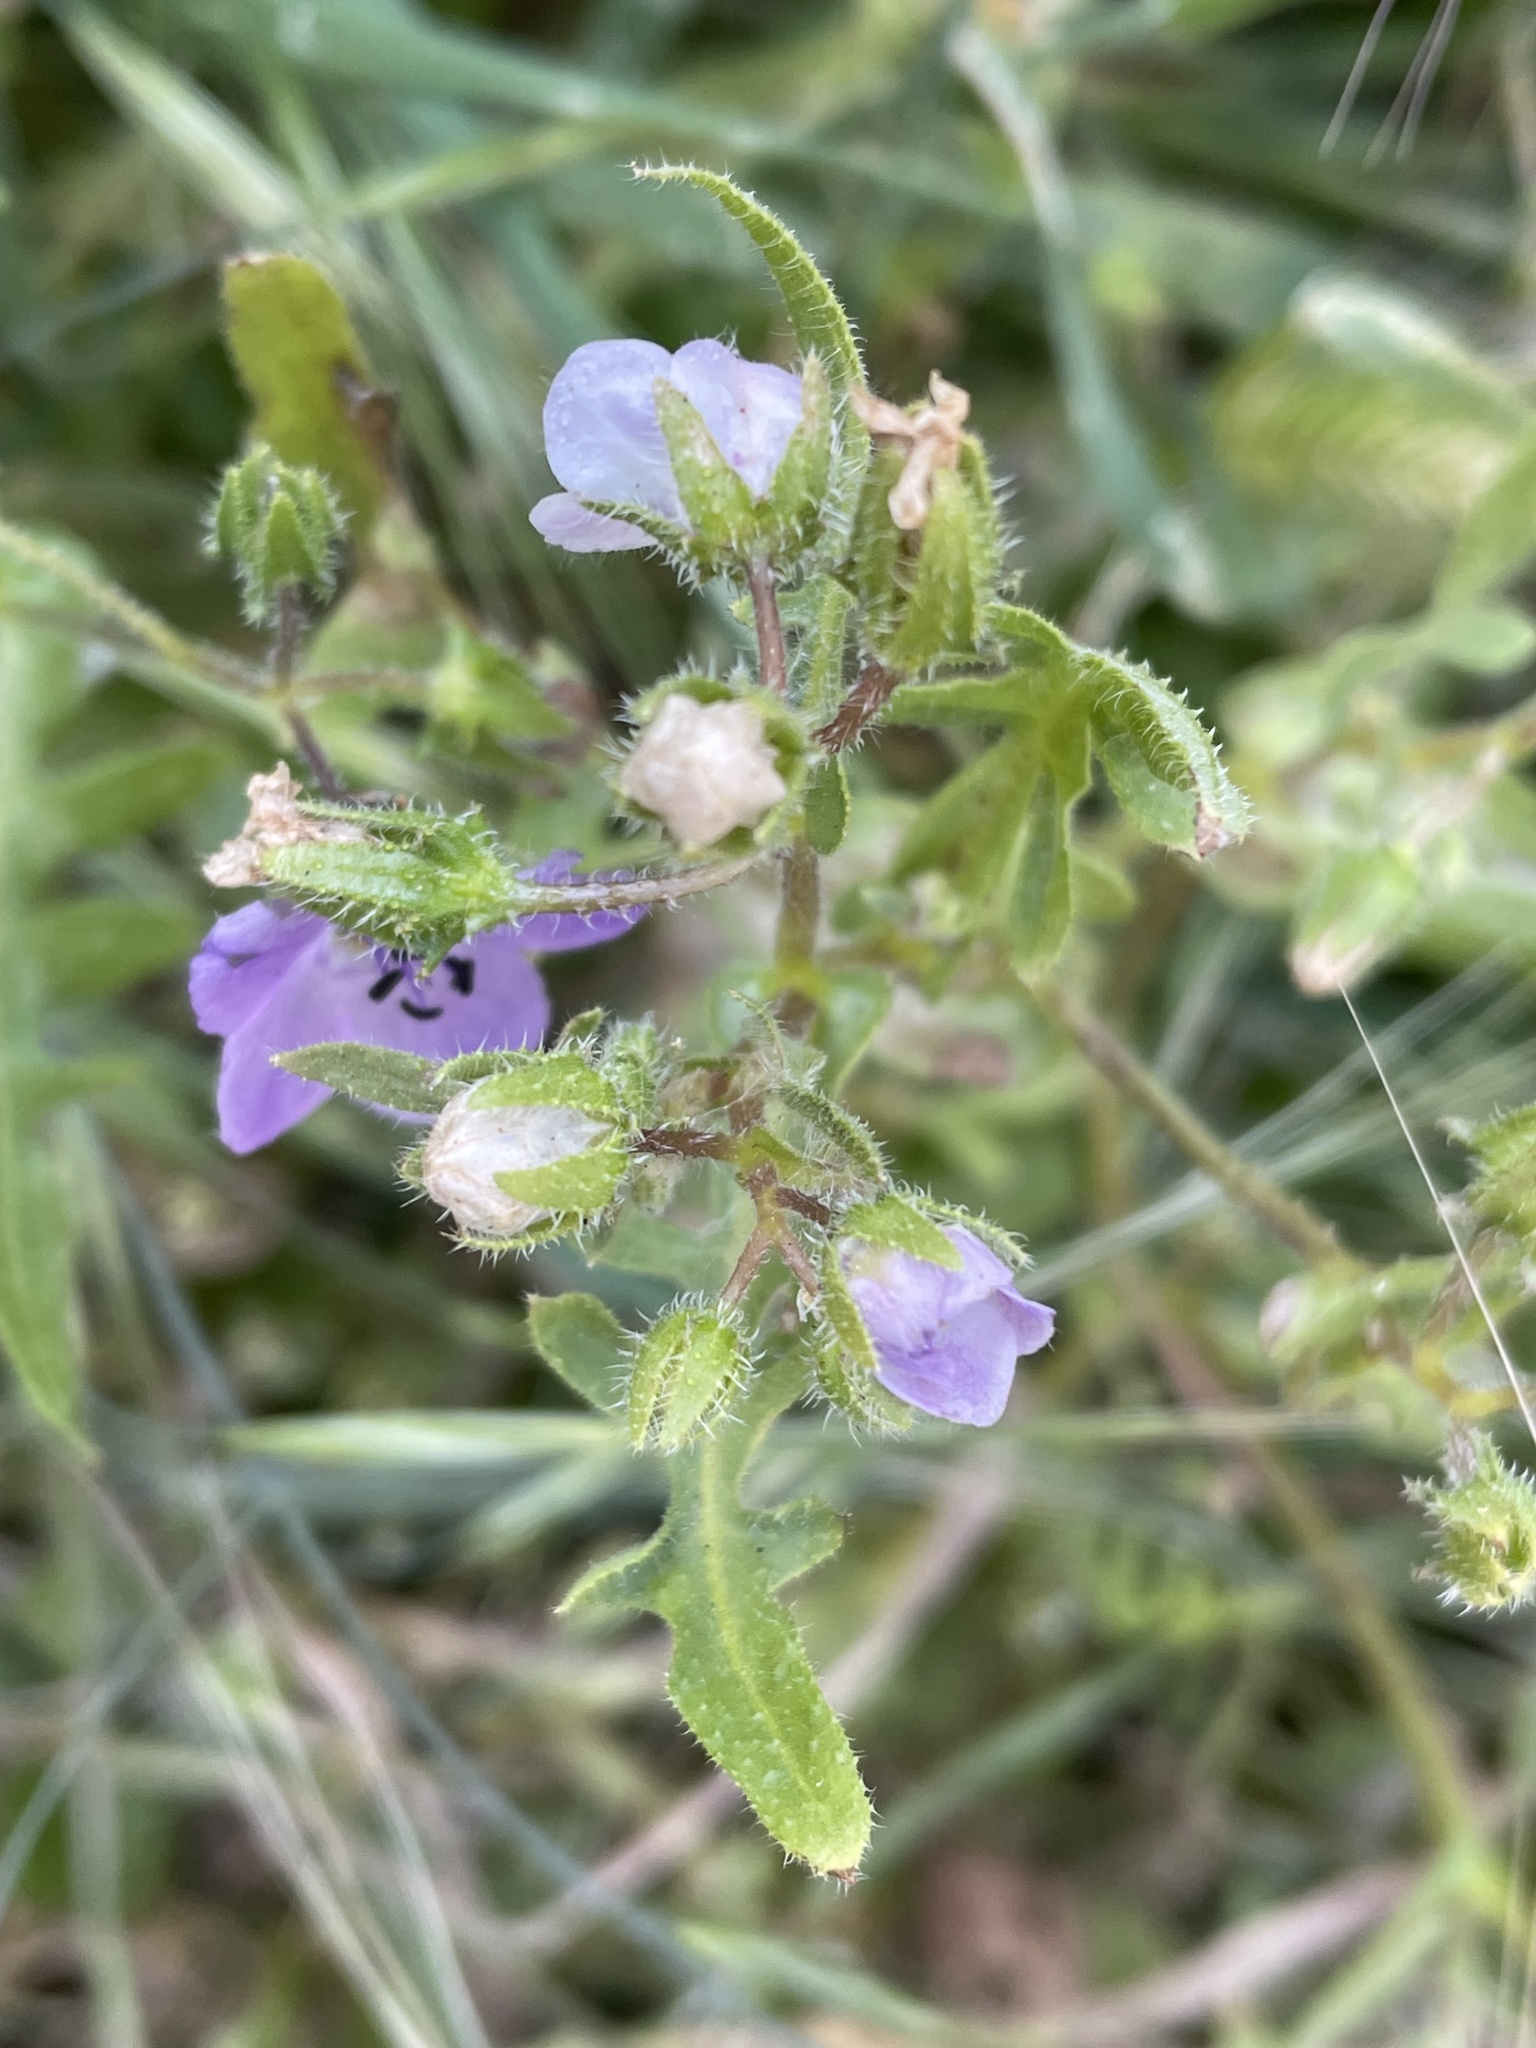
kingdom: Plantae
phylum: Tracheophyta
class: Magnoliopsida
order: Boraginales
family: Hydrophyllaceae
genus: Pholistoma
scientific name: Pholistoma auritum
